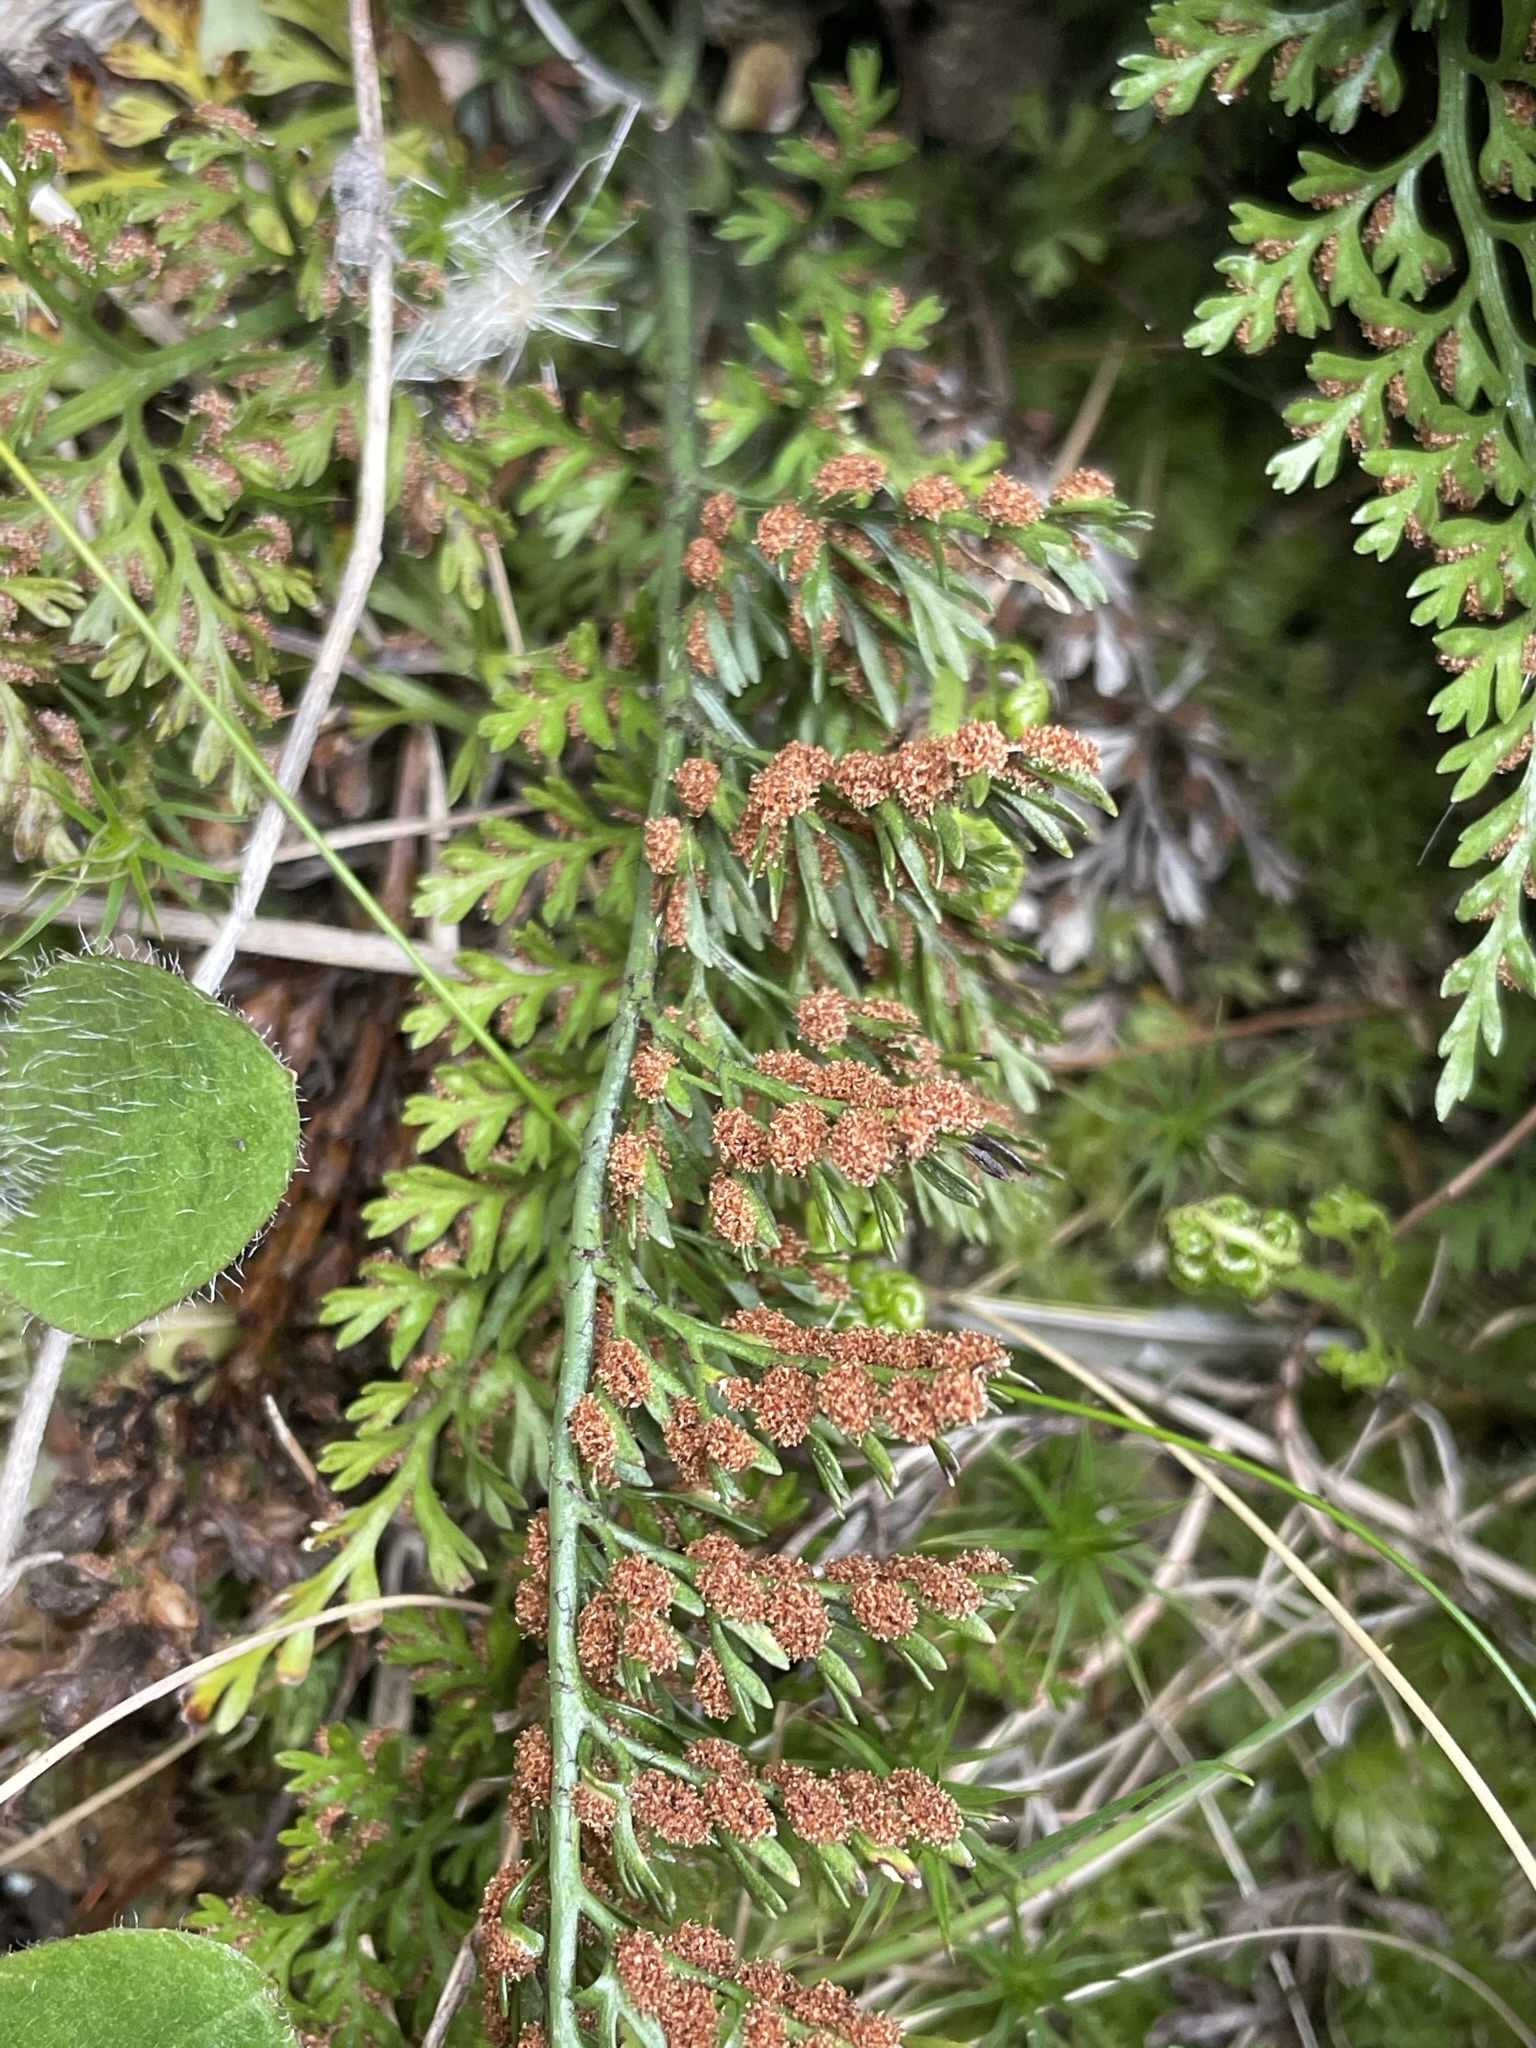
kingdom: Plantae
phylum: Tracheophyta
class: Polypodiopsida
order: Polypodiales
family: Aspleniaceae
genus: Asplenium
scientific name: Asplenium richardii
